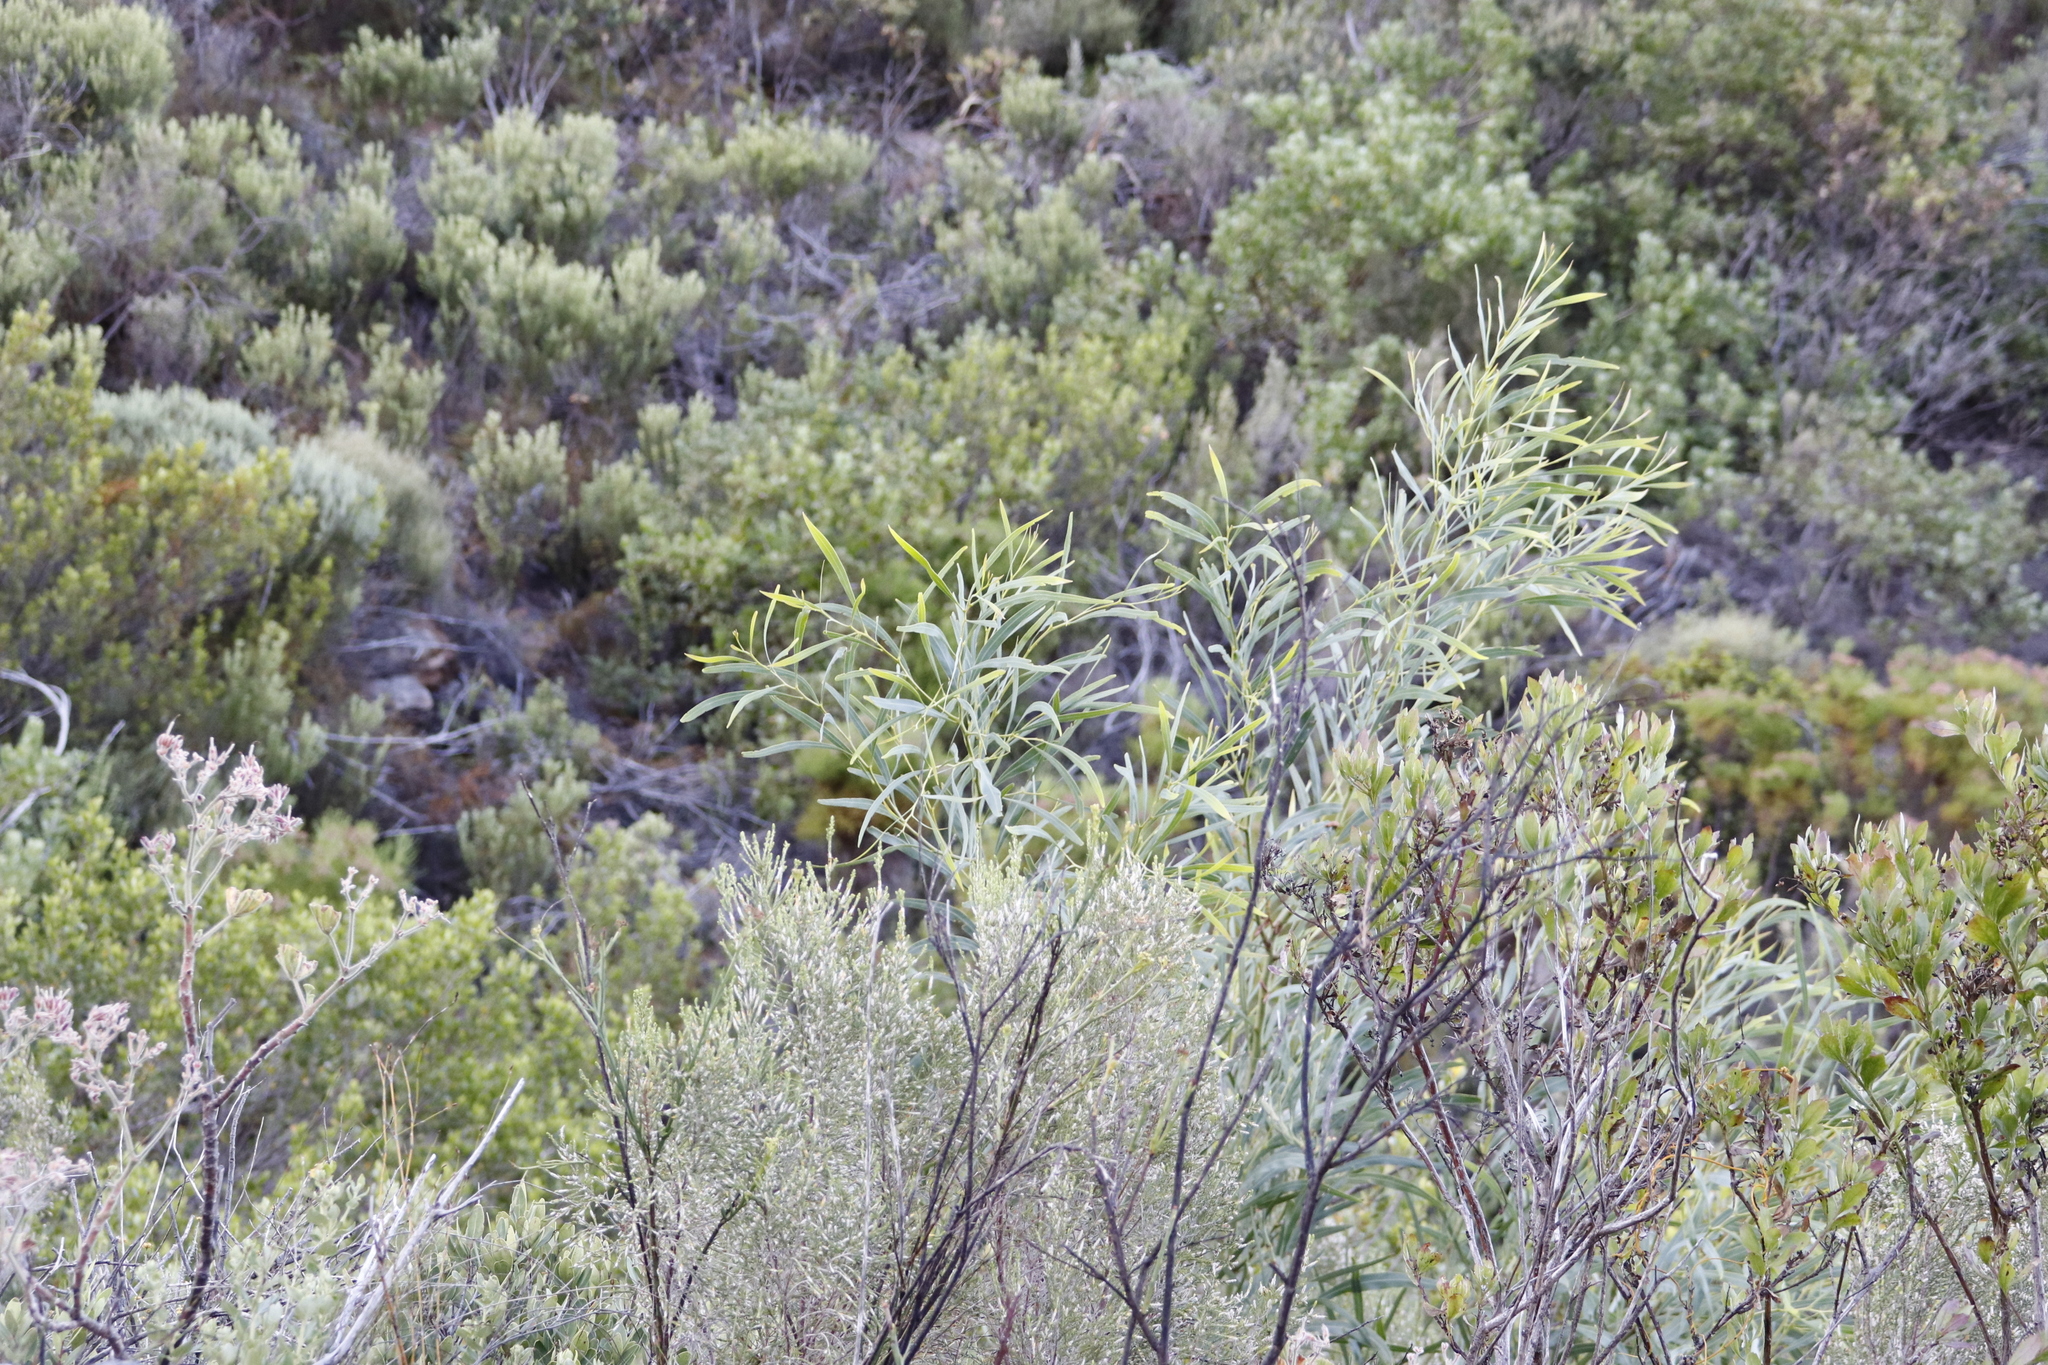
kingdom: Plantae
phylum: Tracheophyta
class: Magnoliopsida
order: Fabales
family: Fabaceae
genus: Acacia
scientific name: Acacia saligna
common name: Orange wattle
